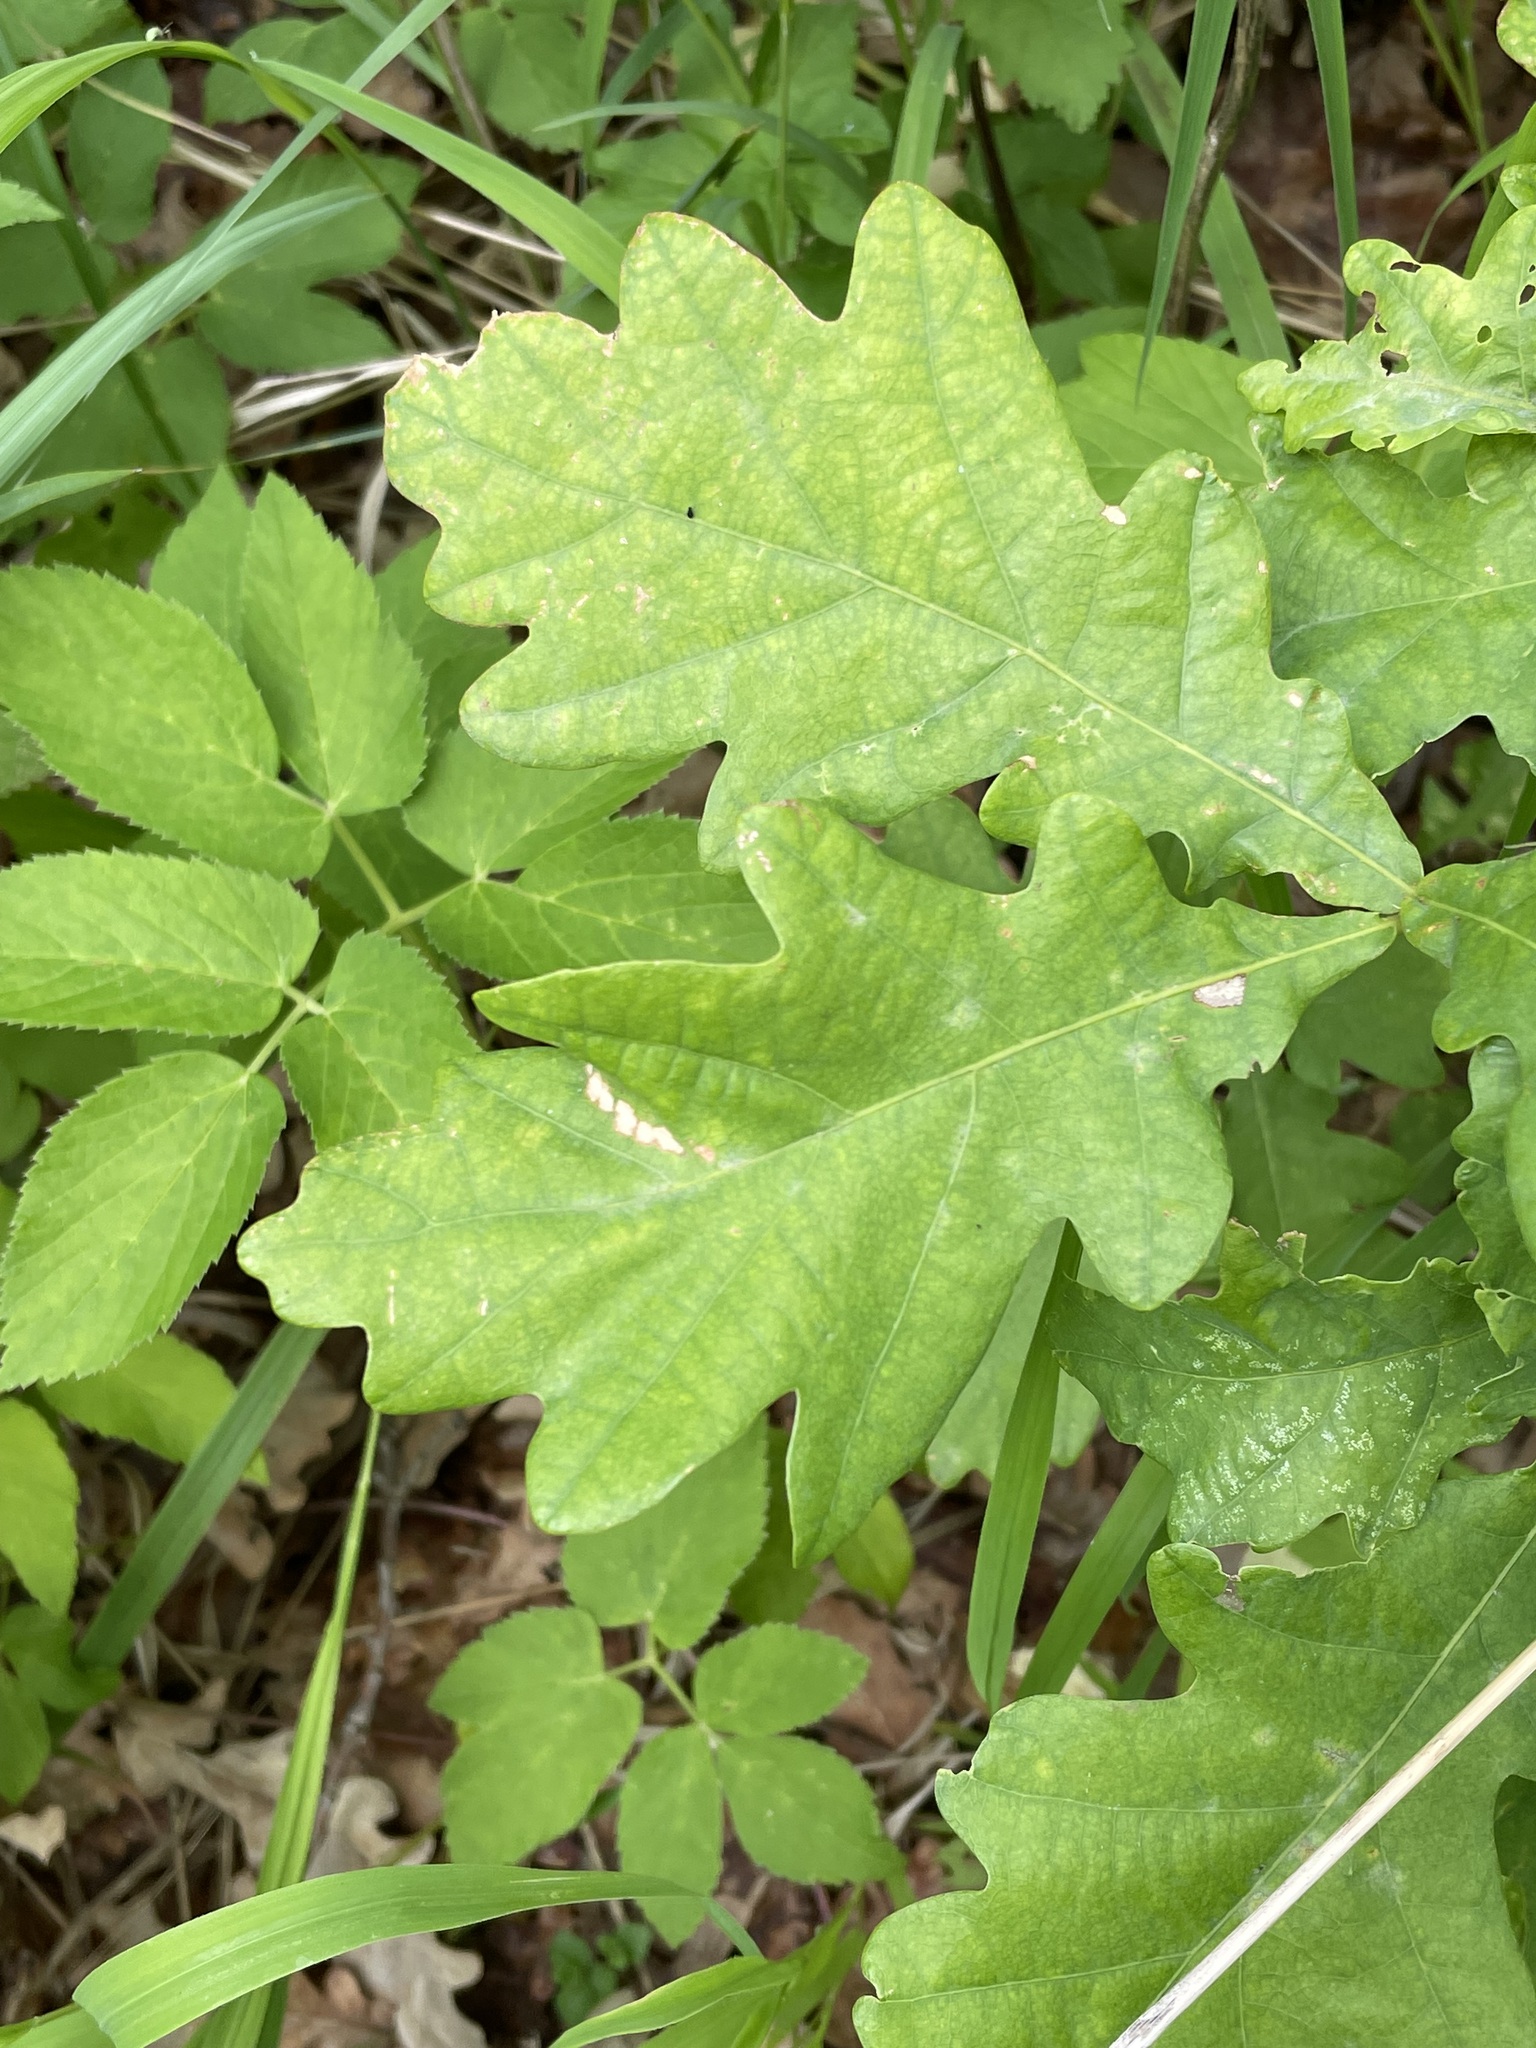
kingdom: Plantae
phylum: Tracheophyta
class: Magnoliopsida
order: Fagales
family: Fagaceae
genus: Quercus
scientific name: Quercus robur
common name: Pedunculate oak
